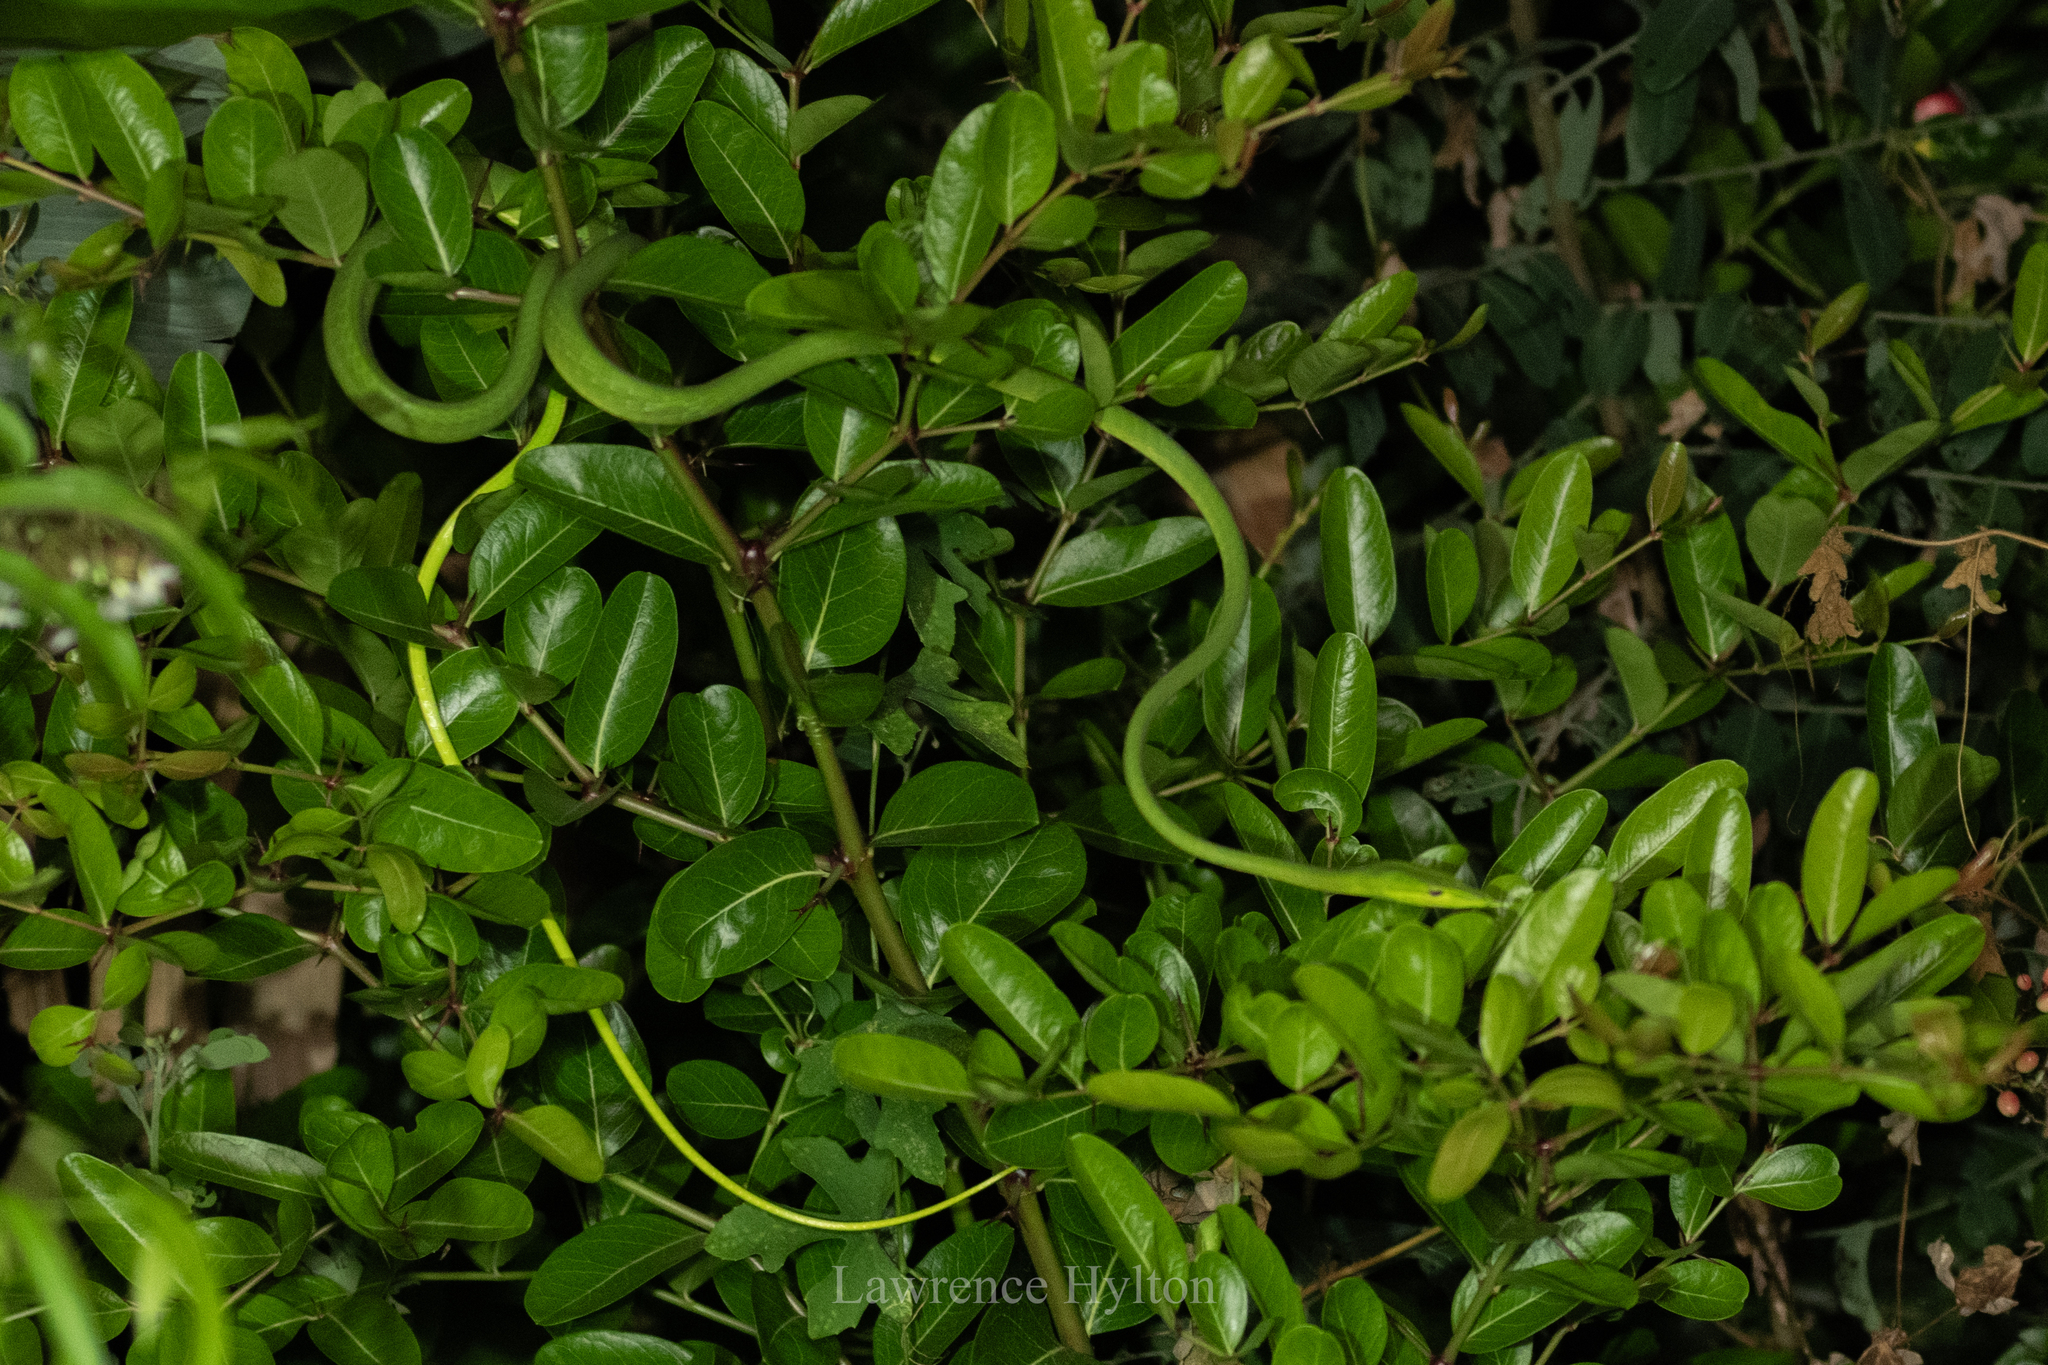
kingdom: Animalia
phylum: Chordata
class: Squamata
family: Colubridae
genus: Ahaetulla
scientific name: Ahaetulla prasina
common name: Oriental whip snake
